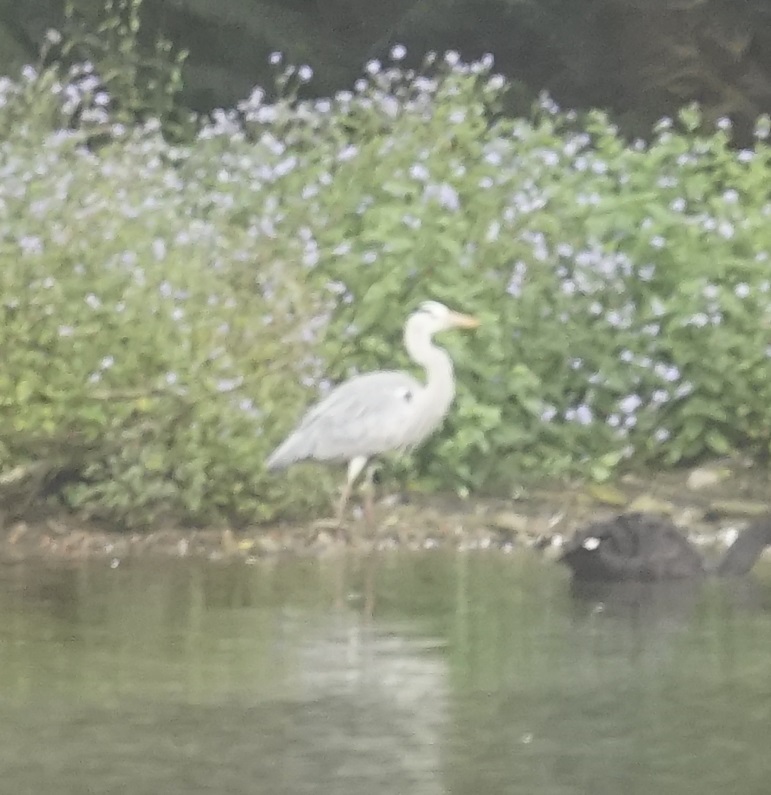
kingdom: Animalia
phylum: Chordata
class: Aves
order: Pelecaniformes
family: Ardeidae
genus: Ardea
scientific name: Ardea cinerea
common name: Grey heron
